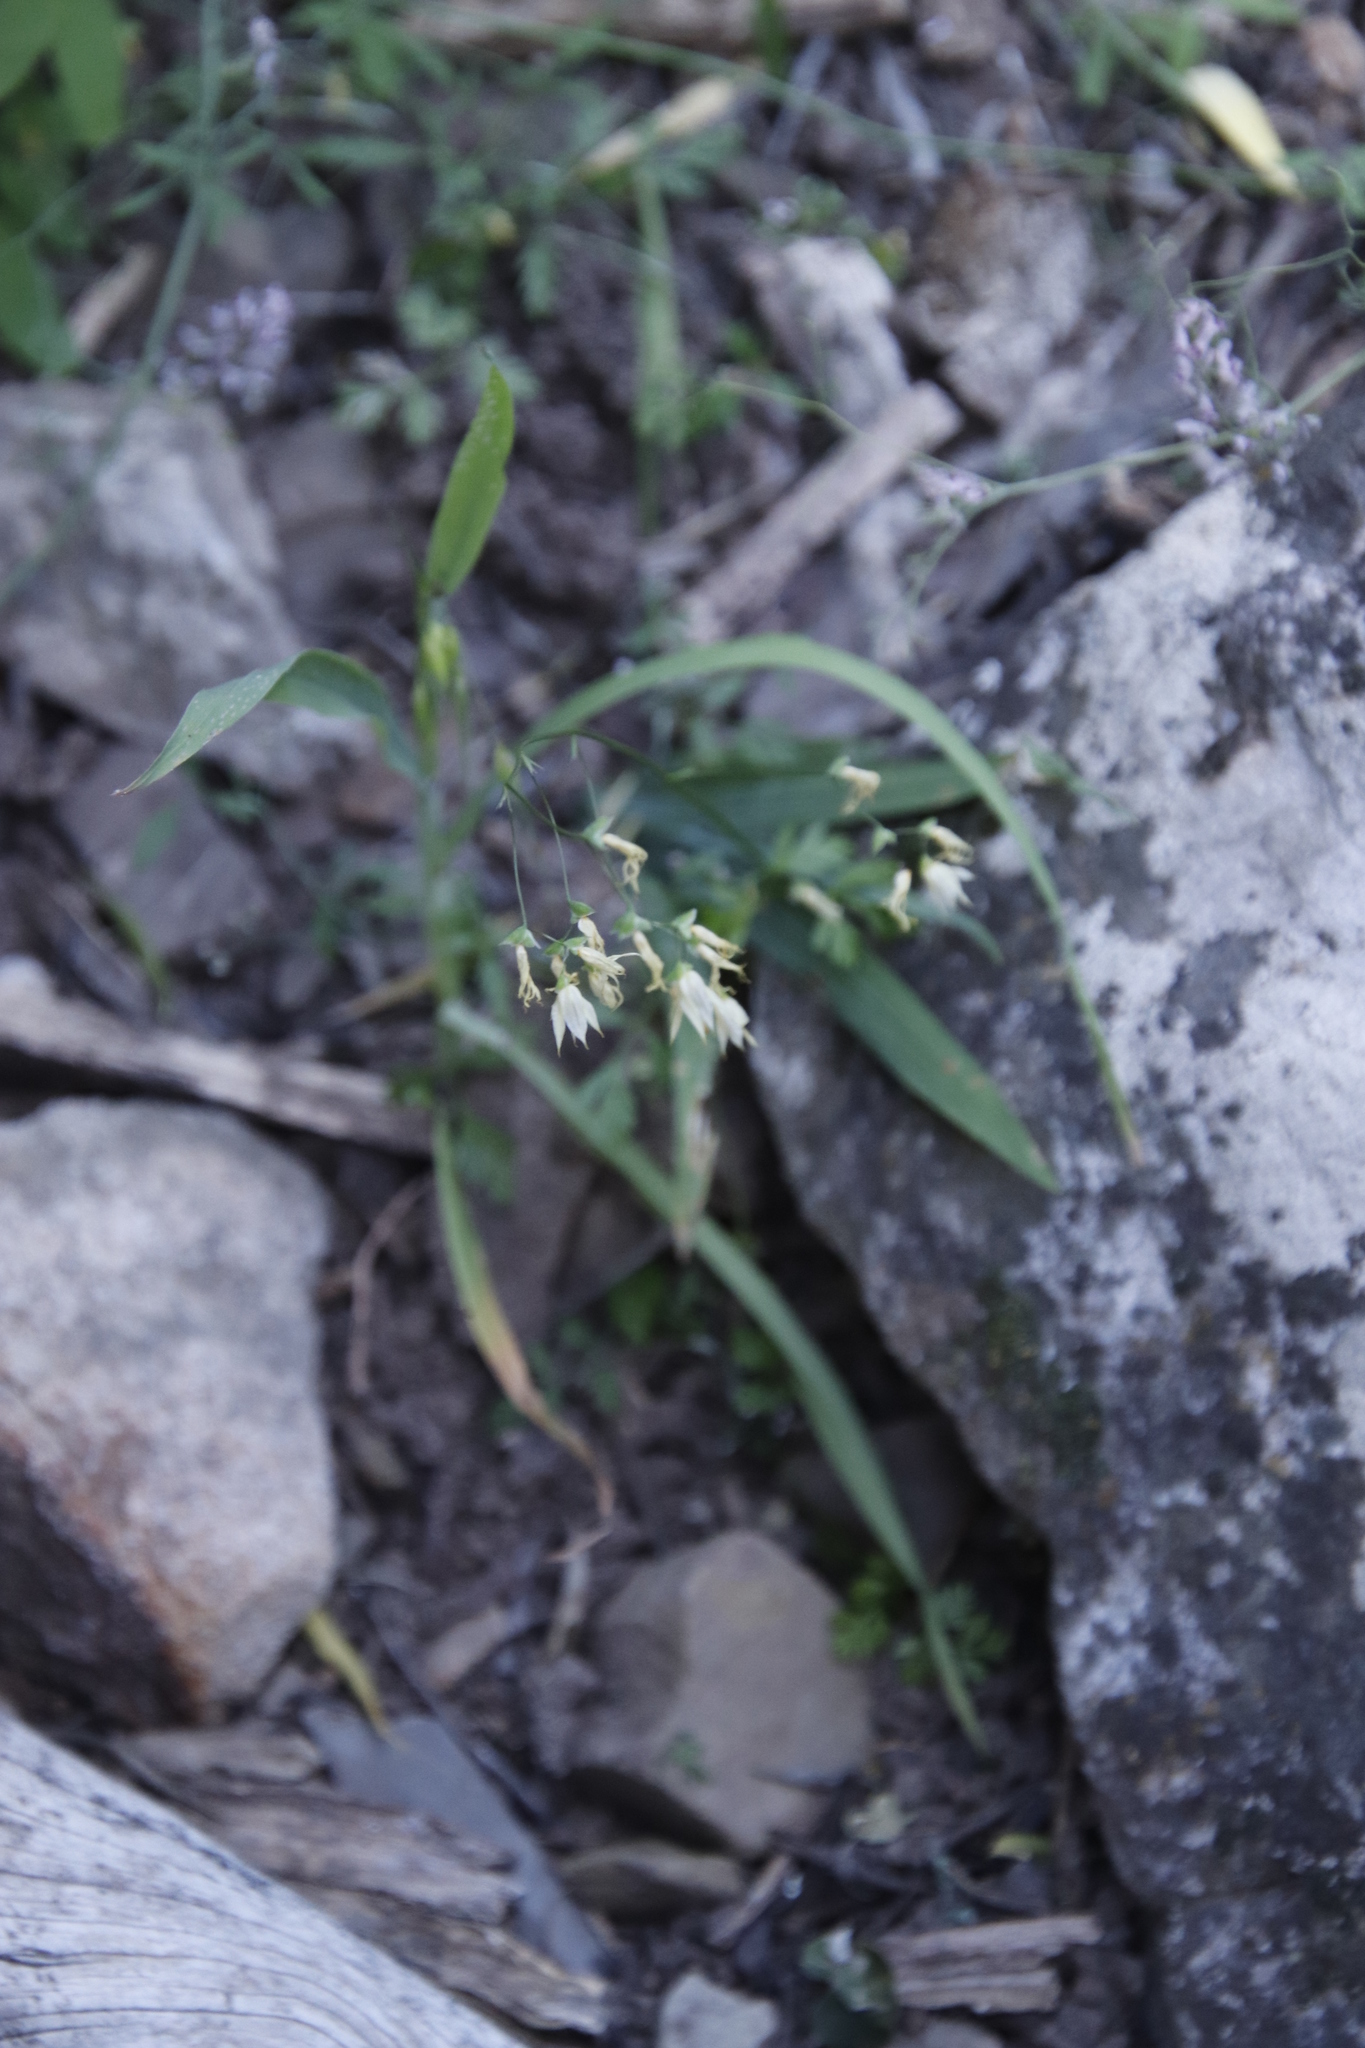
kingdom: Plantae
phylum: Tracheophyta
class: Liliopsida
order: Asparagales
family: Iridaceae
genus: Melasphaerula
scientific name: Melasphaerula graminea
